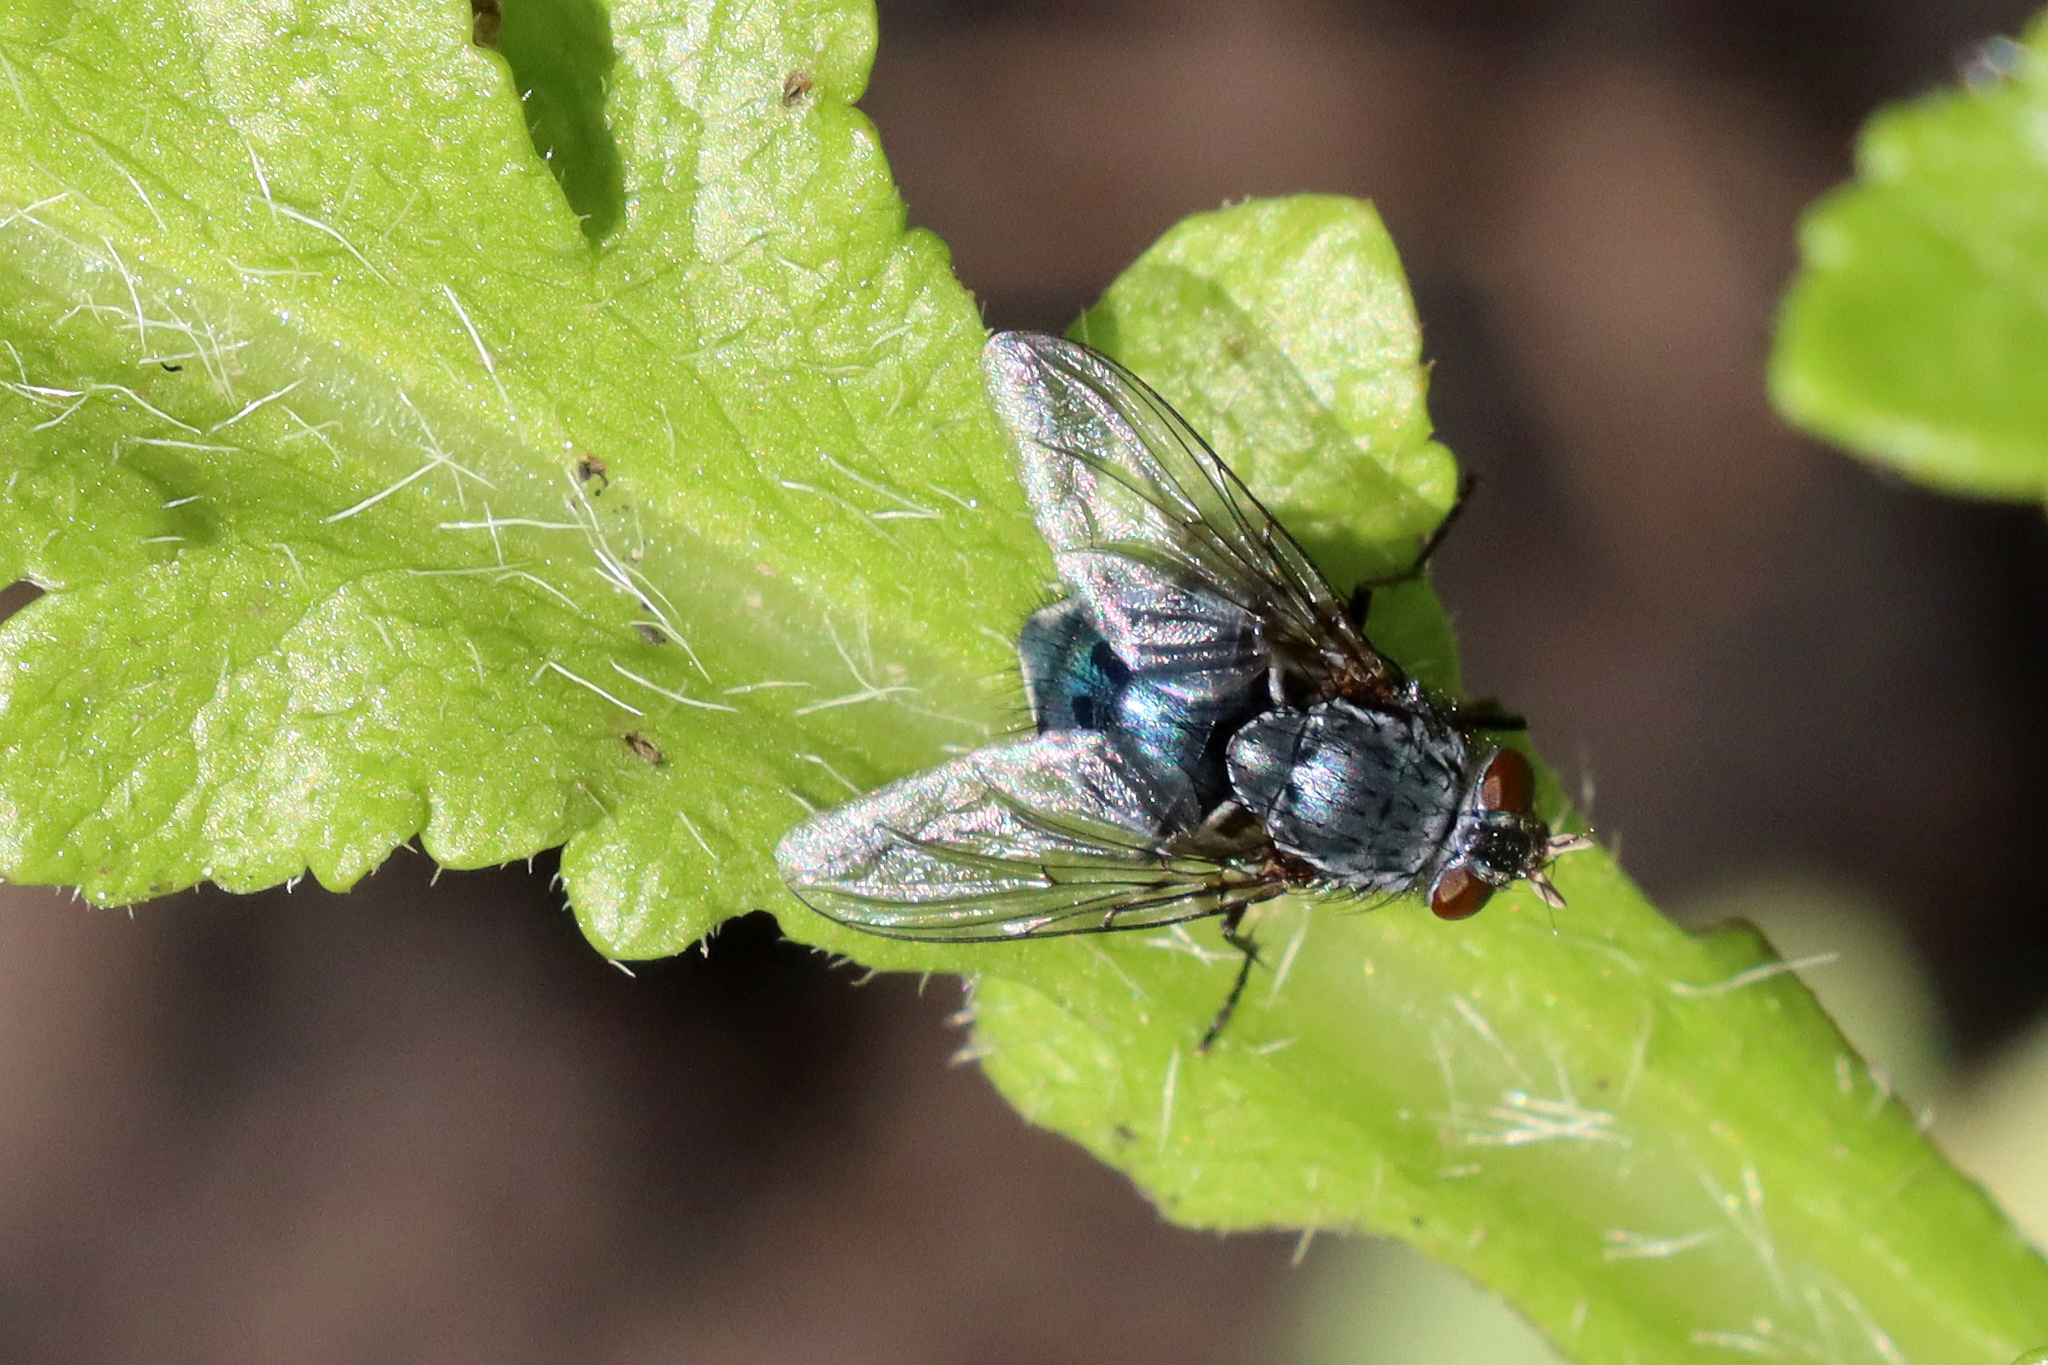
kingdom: Animalia
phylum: Arthropoda
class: Insecta
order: Diptera
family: Calliphoridae
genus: Calliphora
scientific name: Calliphora vicina
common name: Common blow flie
